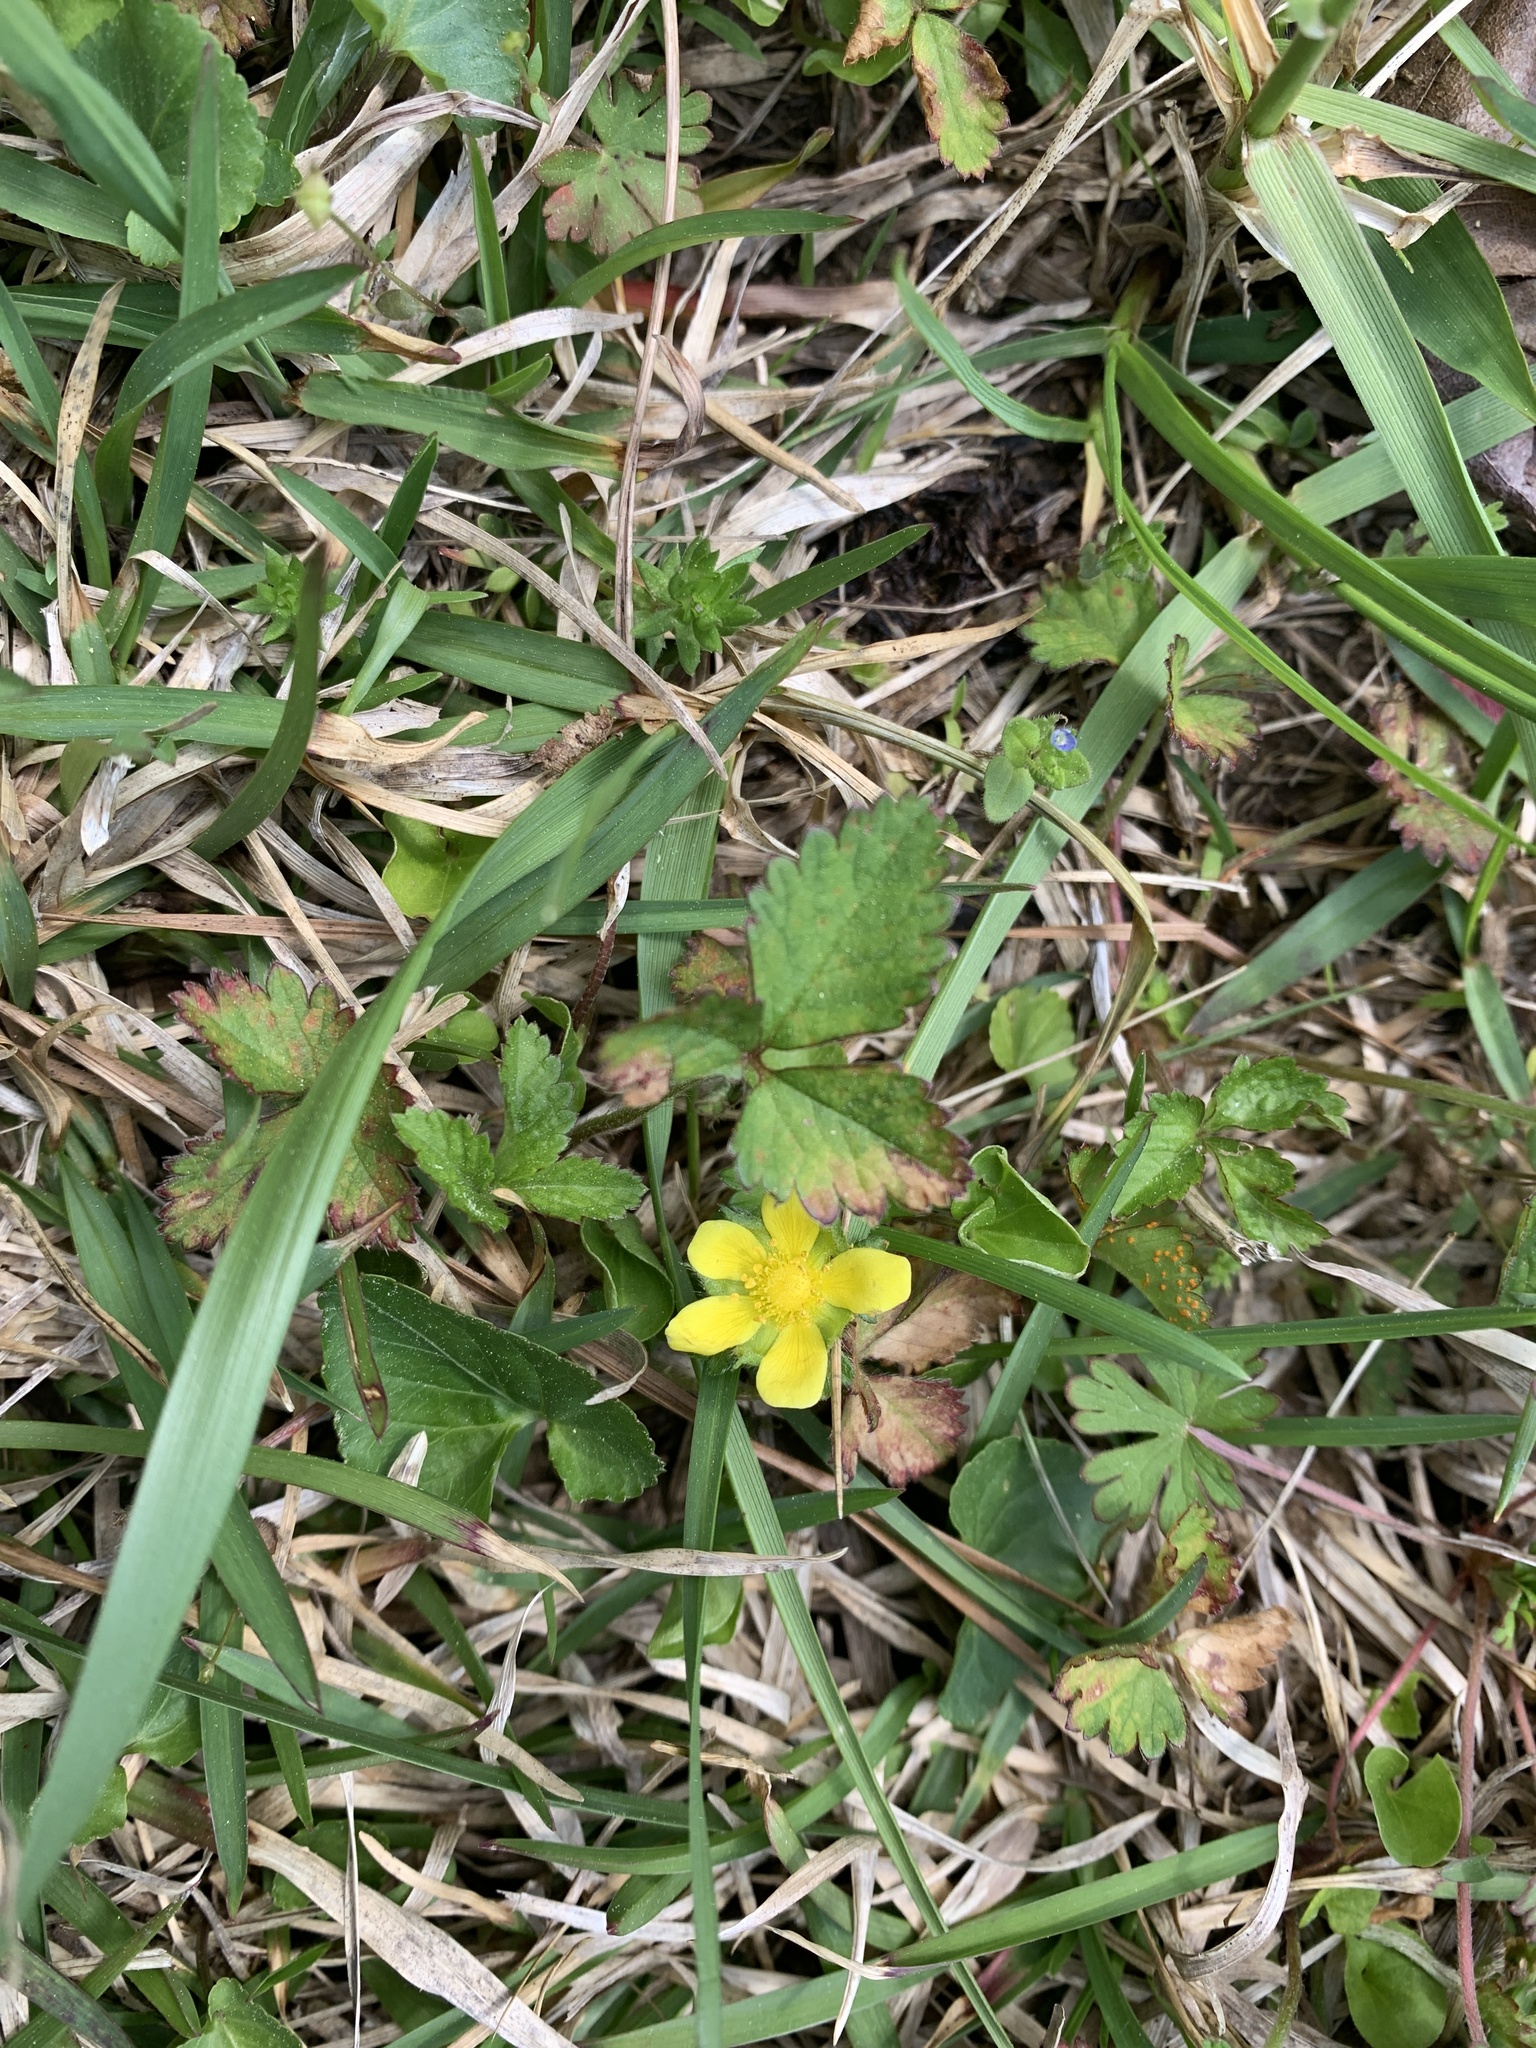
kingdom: Plantae
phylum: Tracheophyta
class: Magnoliopsida
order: Rosales
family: Rosaceae
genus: Potentilla
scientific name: Potentilla indica
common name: Yellow-flowered strawberry
